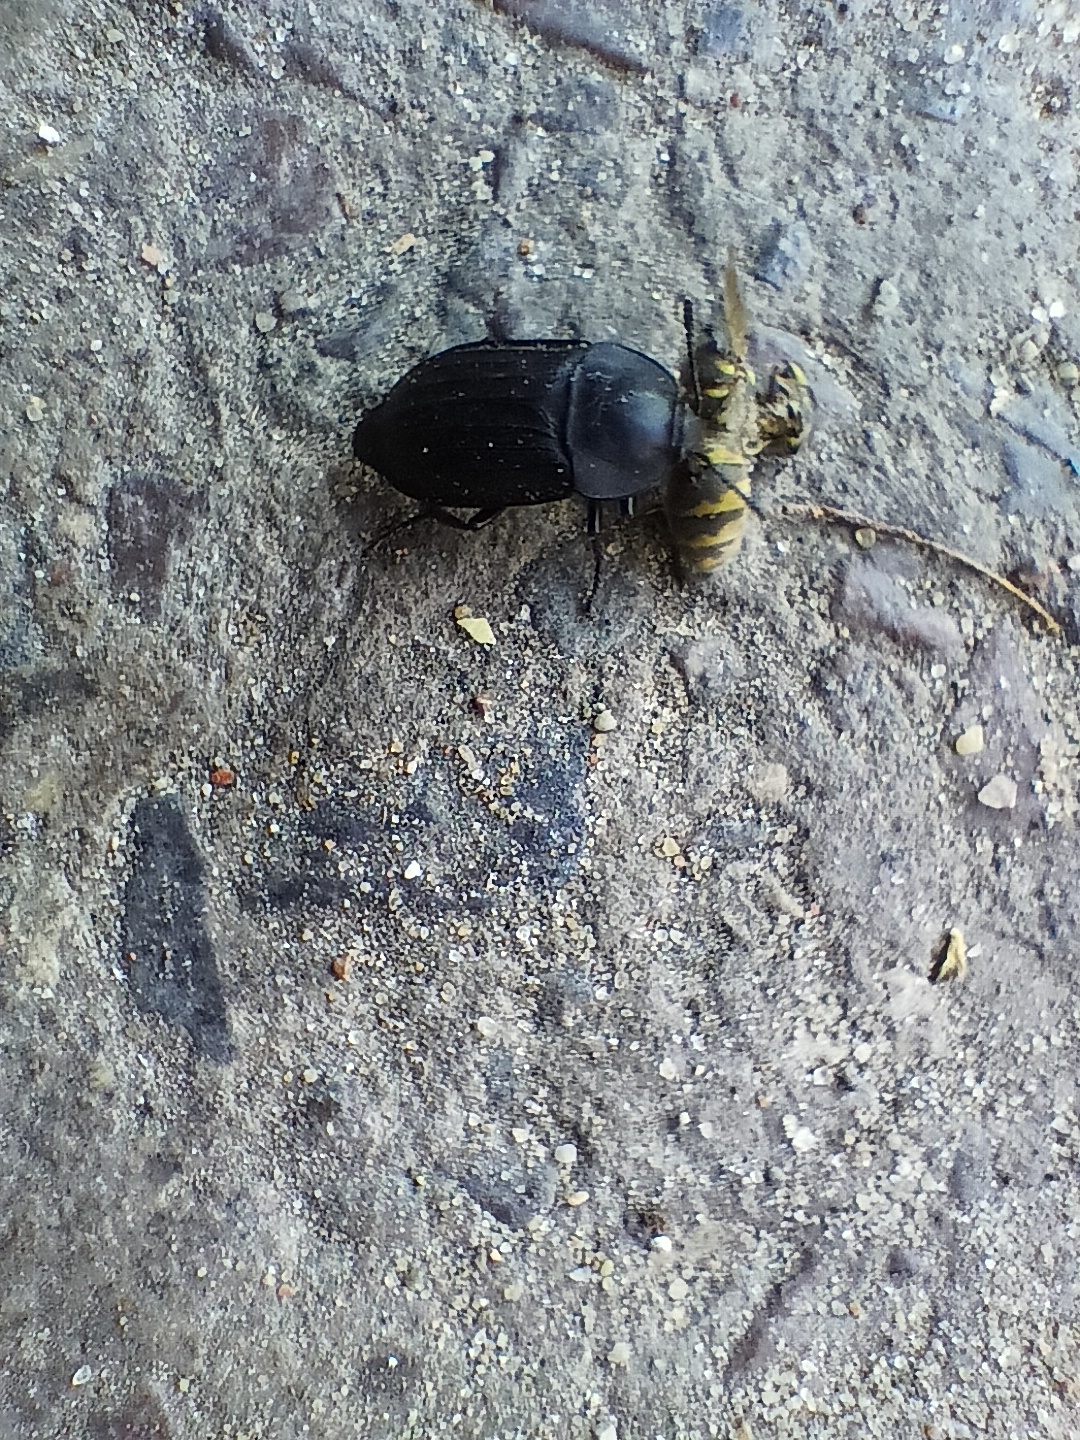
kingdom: Animalia
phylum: Arthropoda
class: Insecta
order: Coleoptera
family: Staphylinidae
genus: Silpha
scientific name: Silpha tristis
